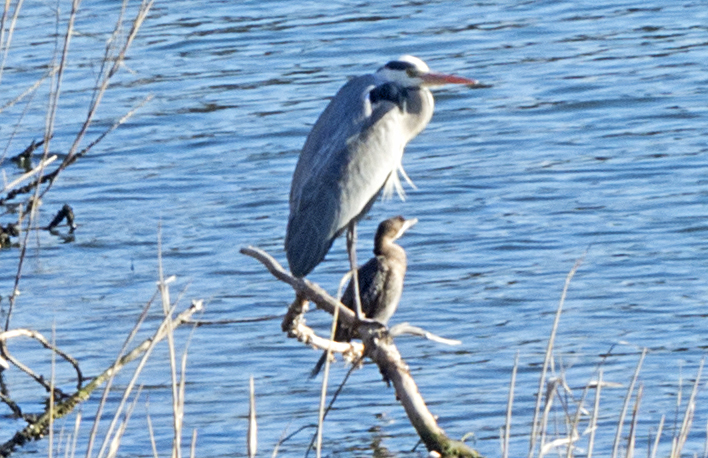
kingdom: Animalia
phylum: Chordata
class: Aves
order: Suliformes
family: Phalacrocoracidae
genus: Microcarbo
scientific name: Microcarbo pygmaeus
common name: Pygmy cormorant
